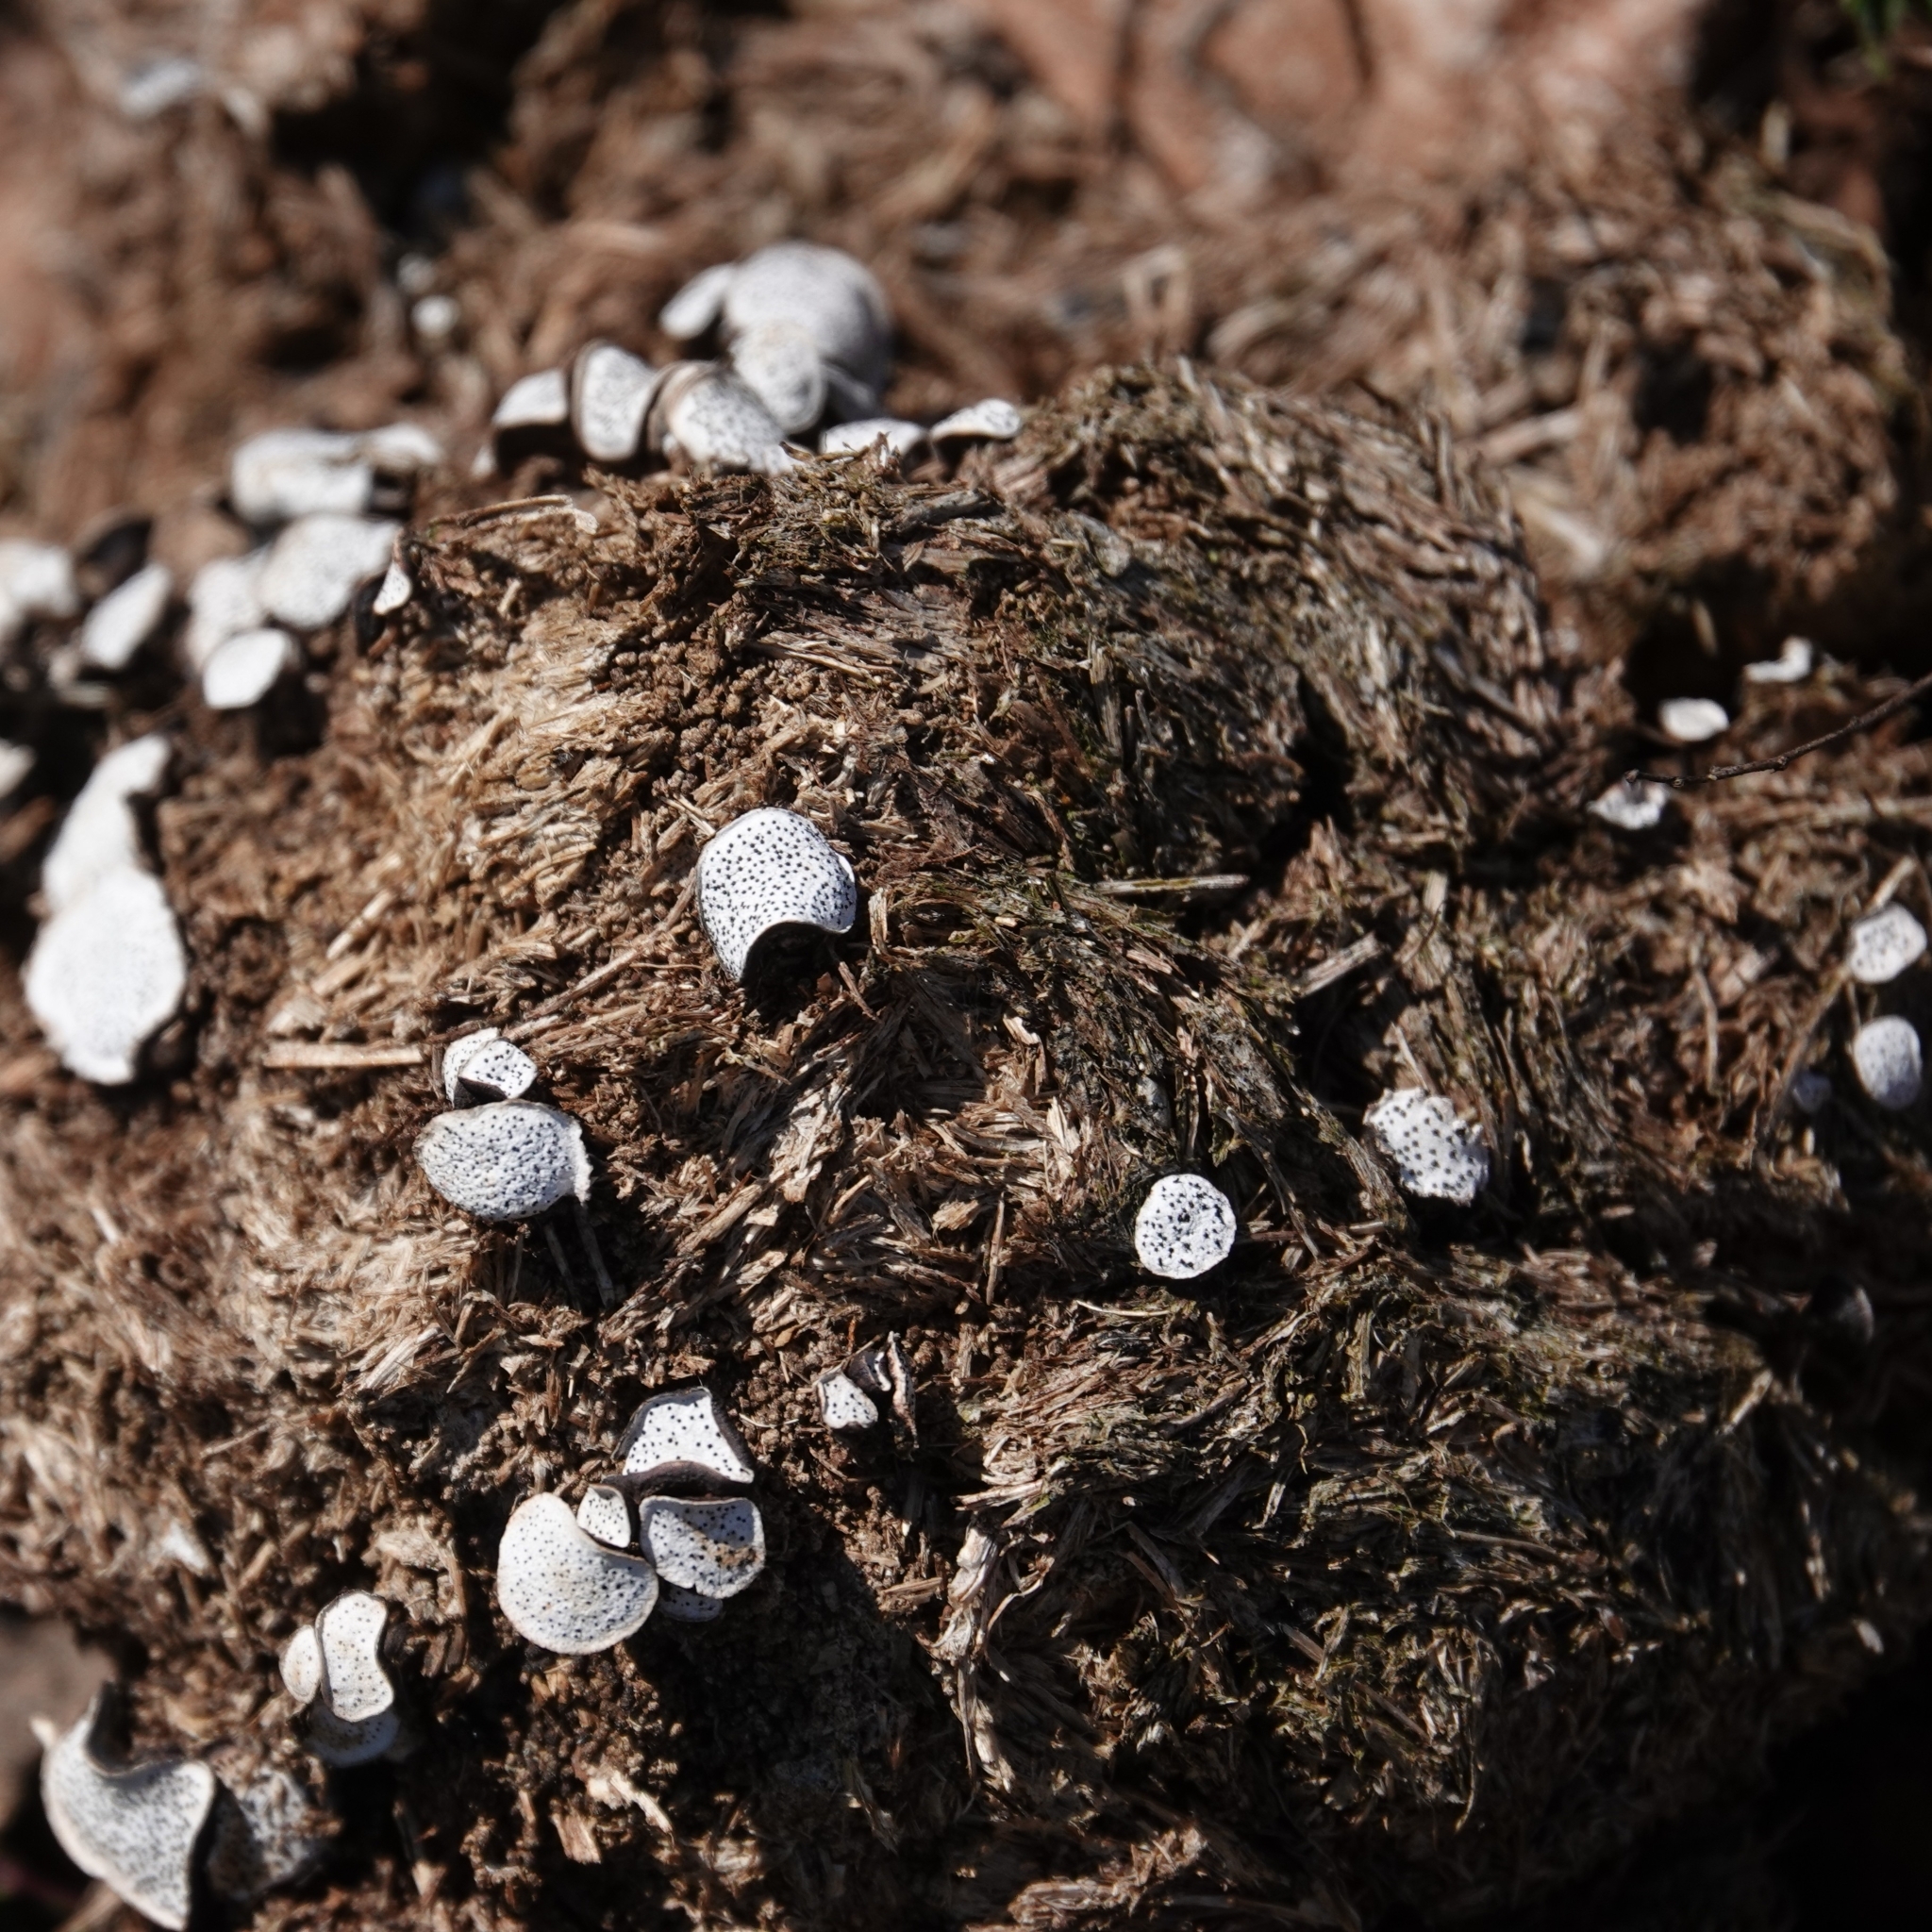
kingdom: Fungi
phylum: Ascomycota
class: Sordariomycetes
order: Xylariales
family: Xylariaceae
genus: Poronia
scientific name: Poronia punctata
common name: Nail fungus
